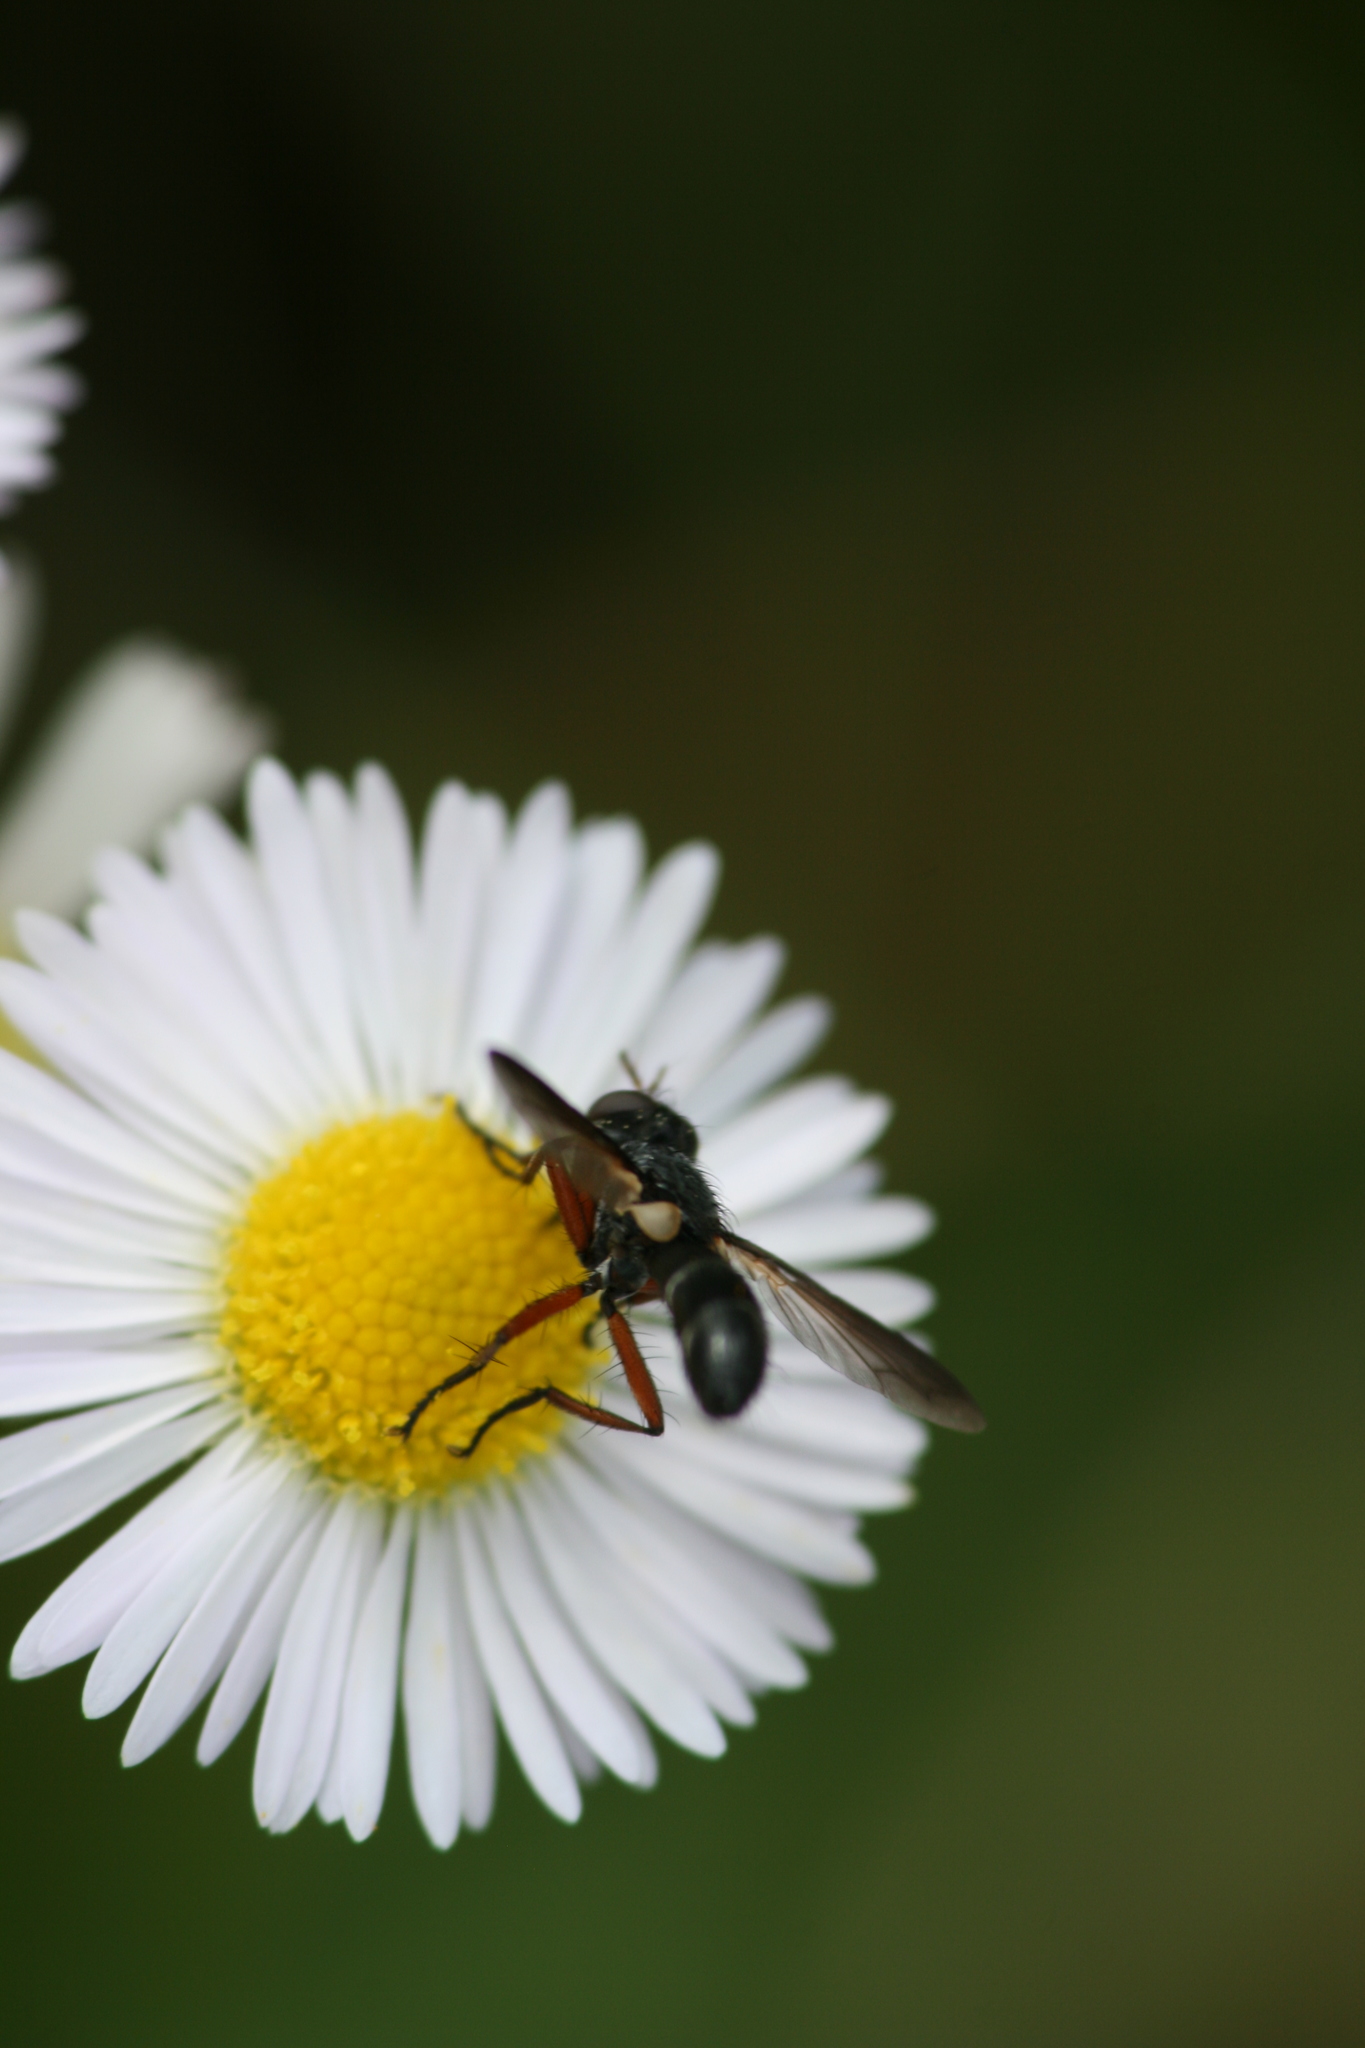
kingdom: Animalia
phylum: Arthropoda
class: Insecta
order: Diptera
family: Tachinidae
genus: Cylindromyia
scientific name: Cylindromyia rufipes
